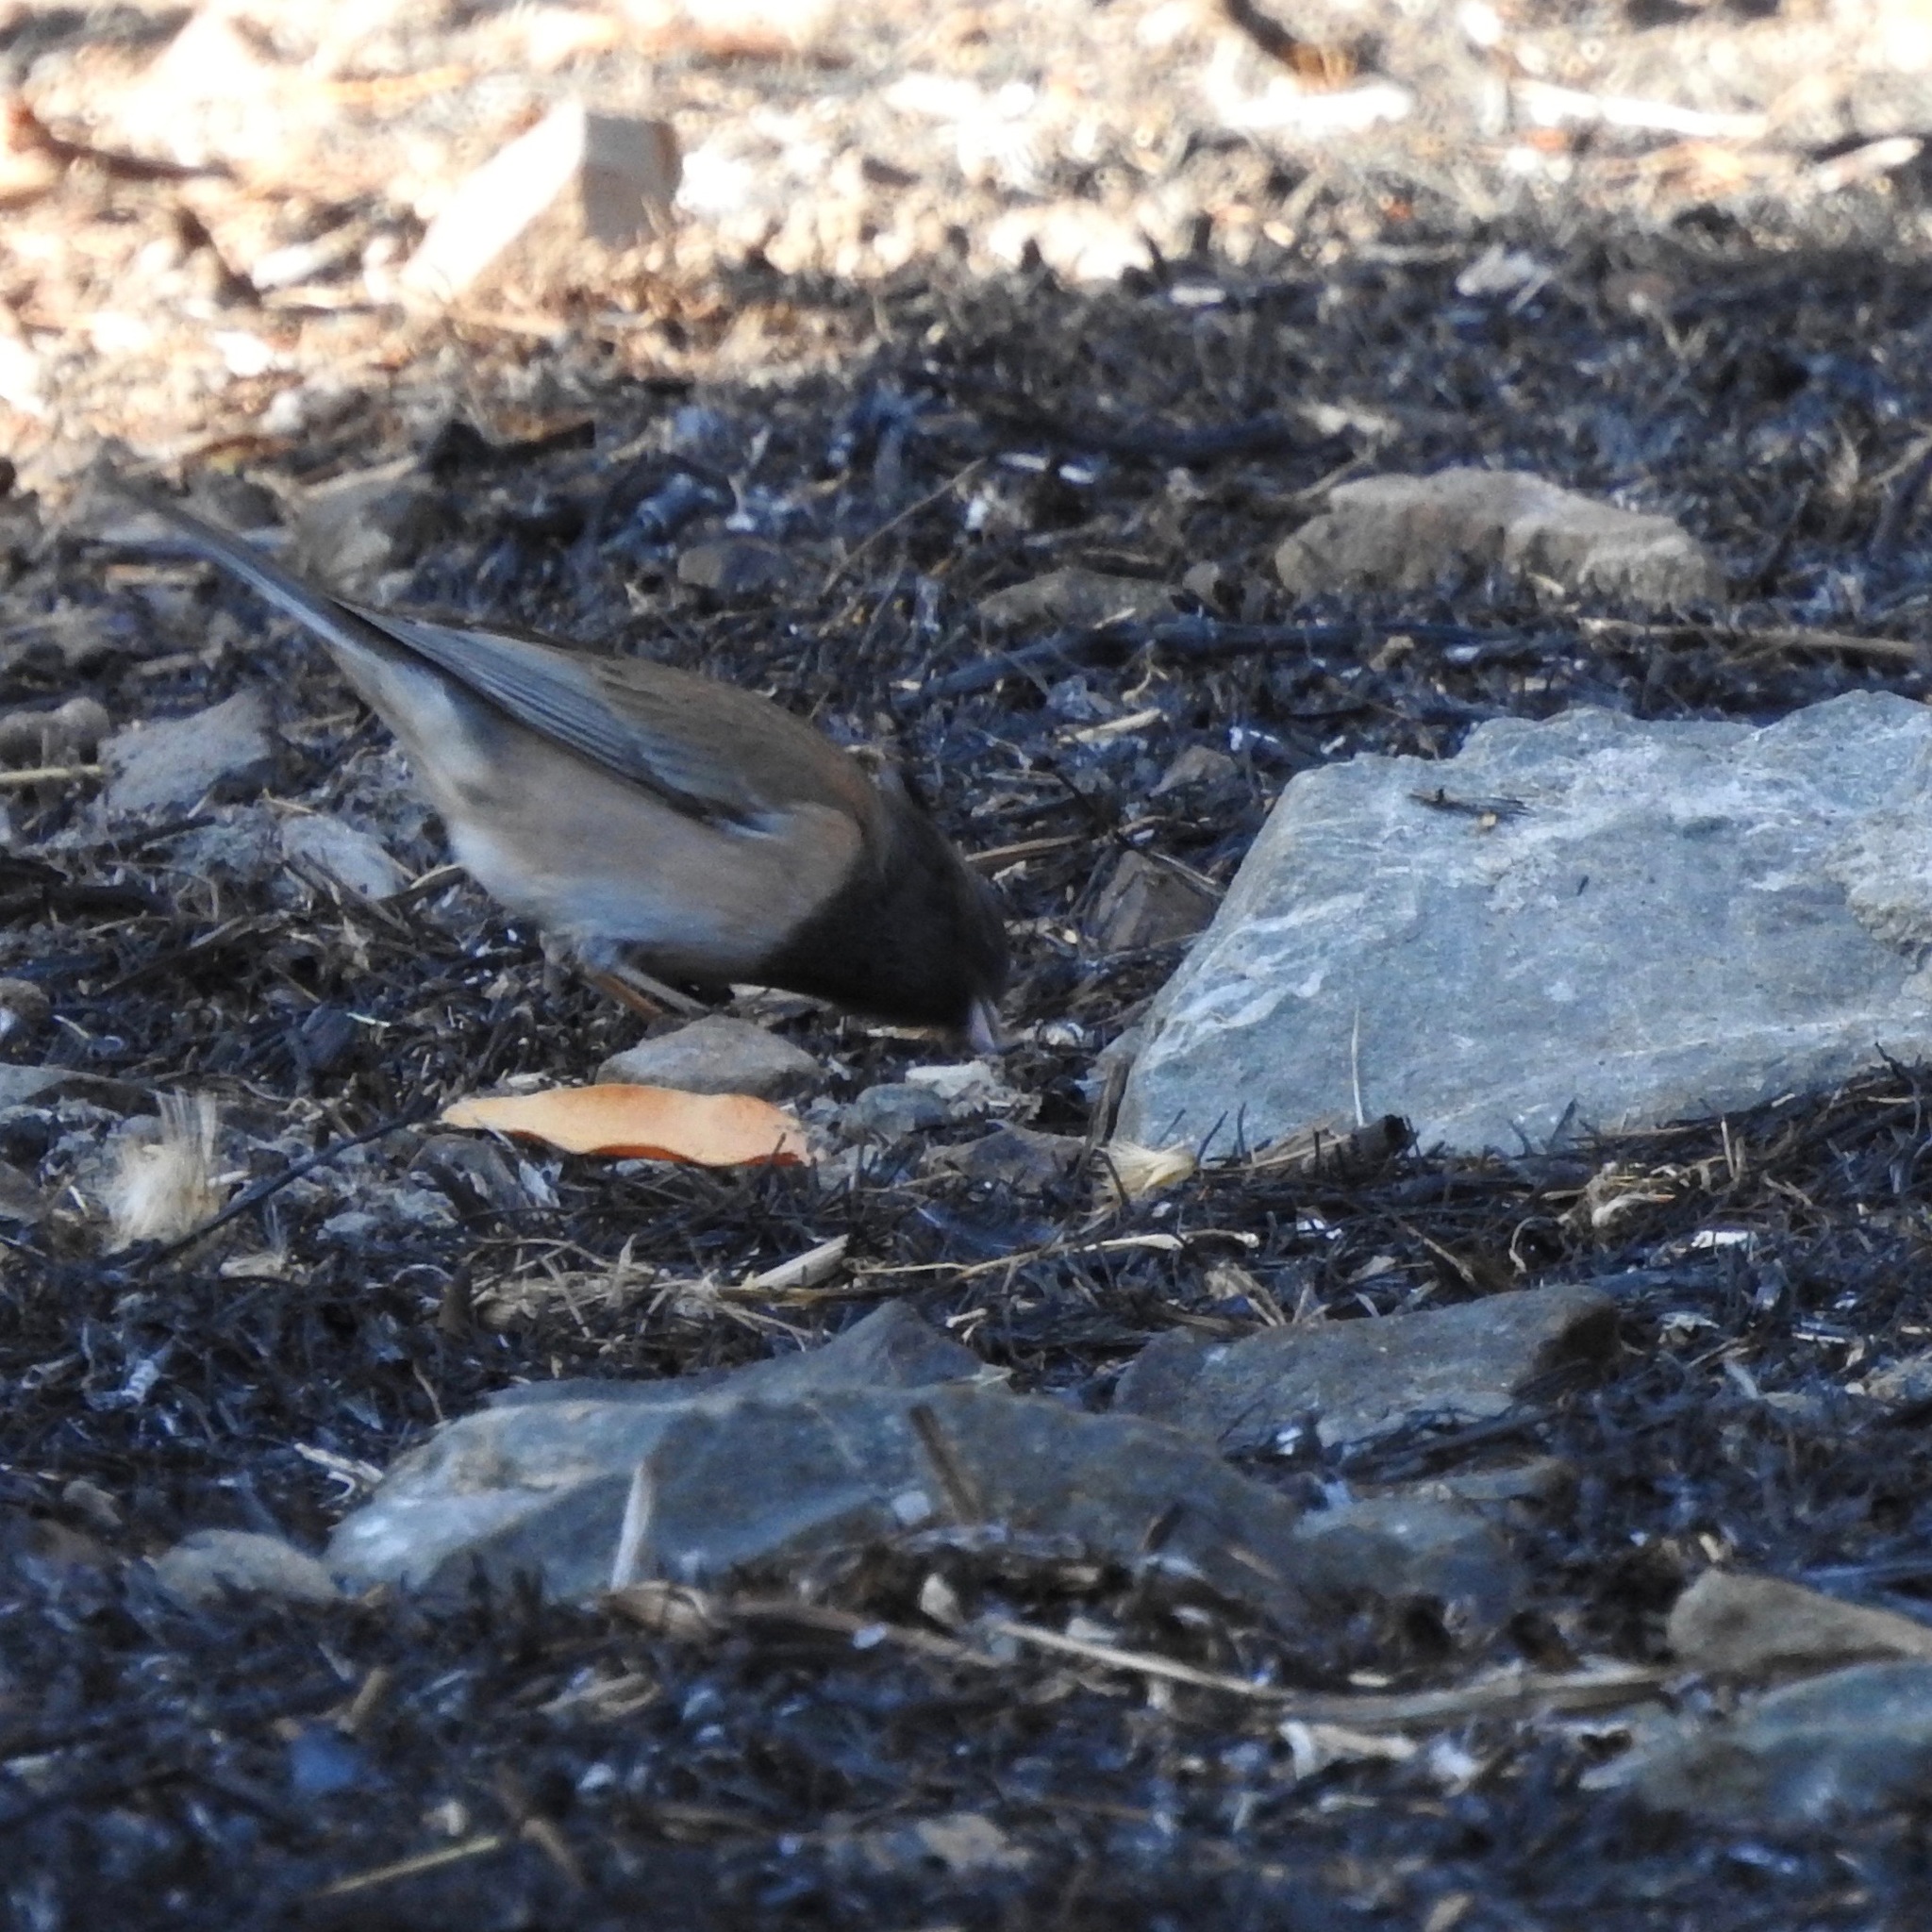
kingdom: Animalia
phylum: Chordata
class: Aves
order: Passeriformes
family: Passerellidae
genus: Junco
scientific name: Junco hyemalis
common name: Dark-eyed junco
